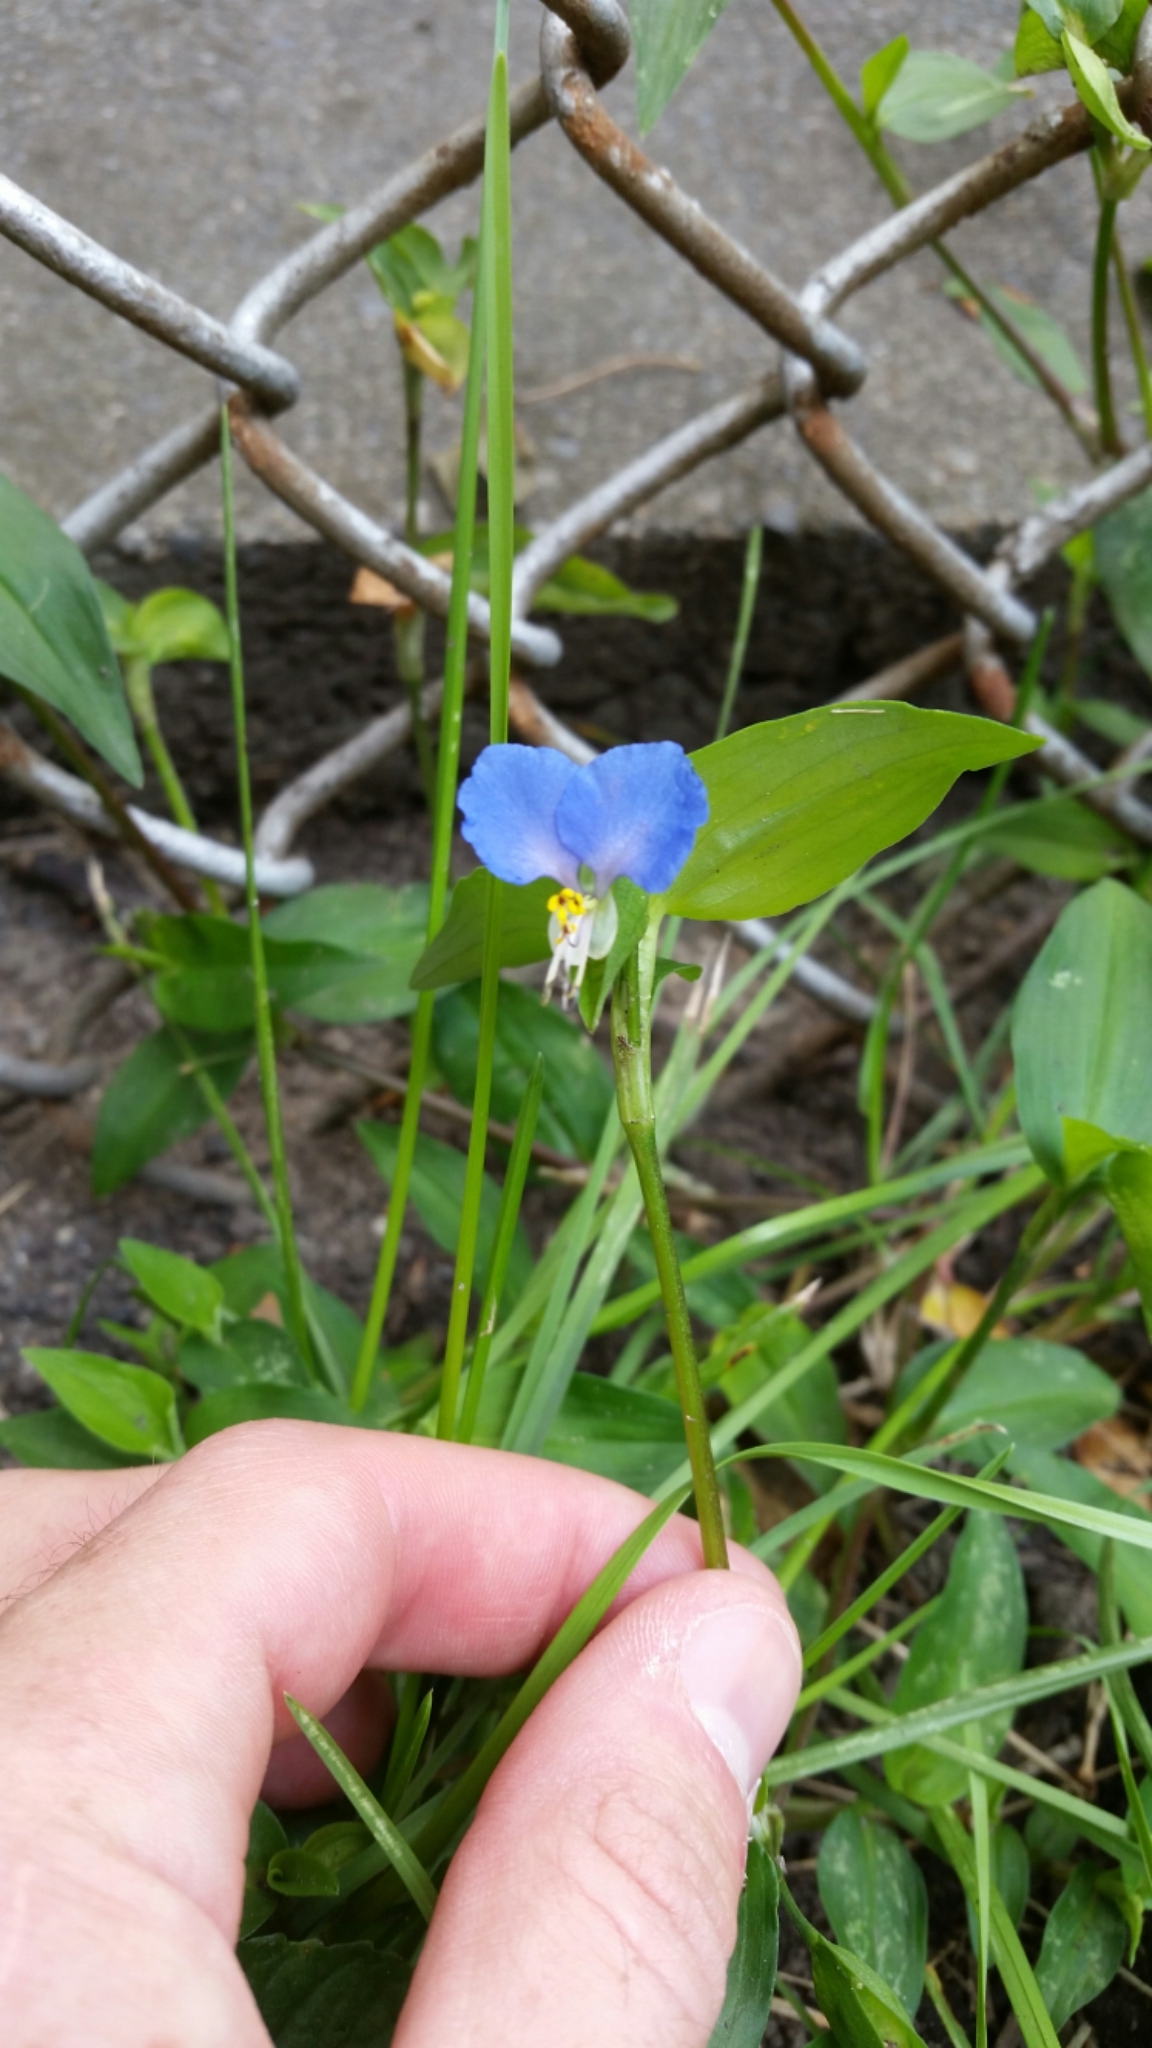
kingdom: Plantae
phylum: Tracheophyta
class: Liliopsida
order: Commelinales
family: Commelinaceae
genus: Commelina
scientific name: Commelina communis
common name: Asiatic dayflower
